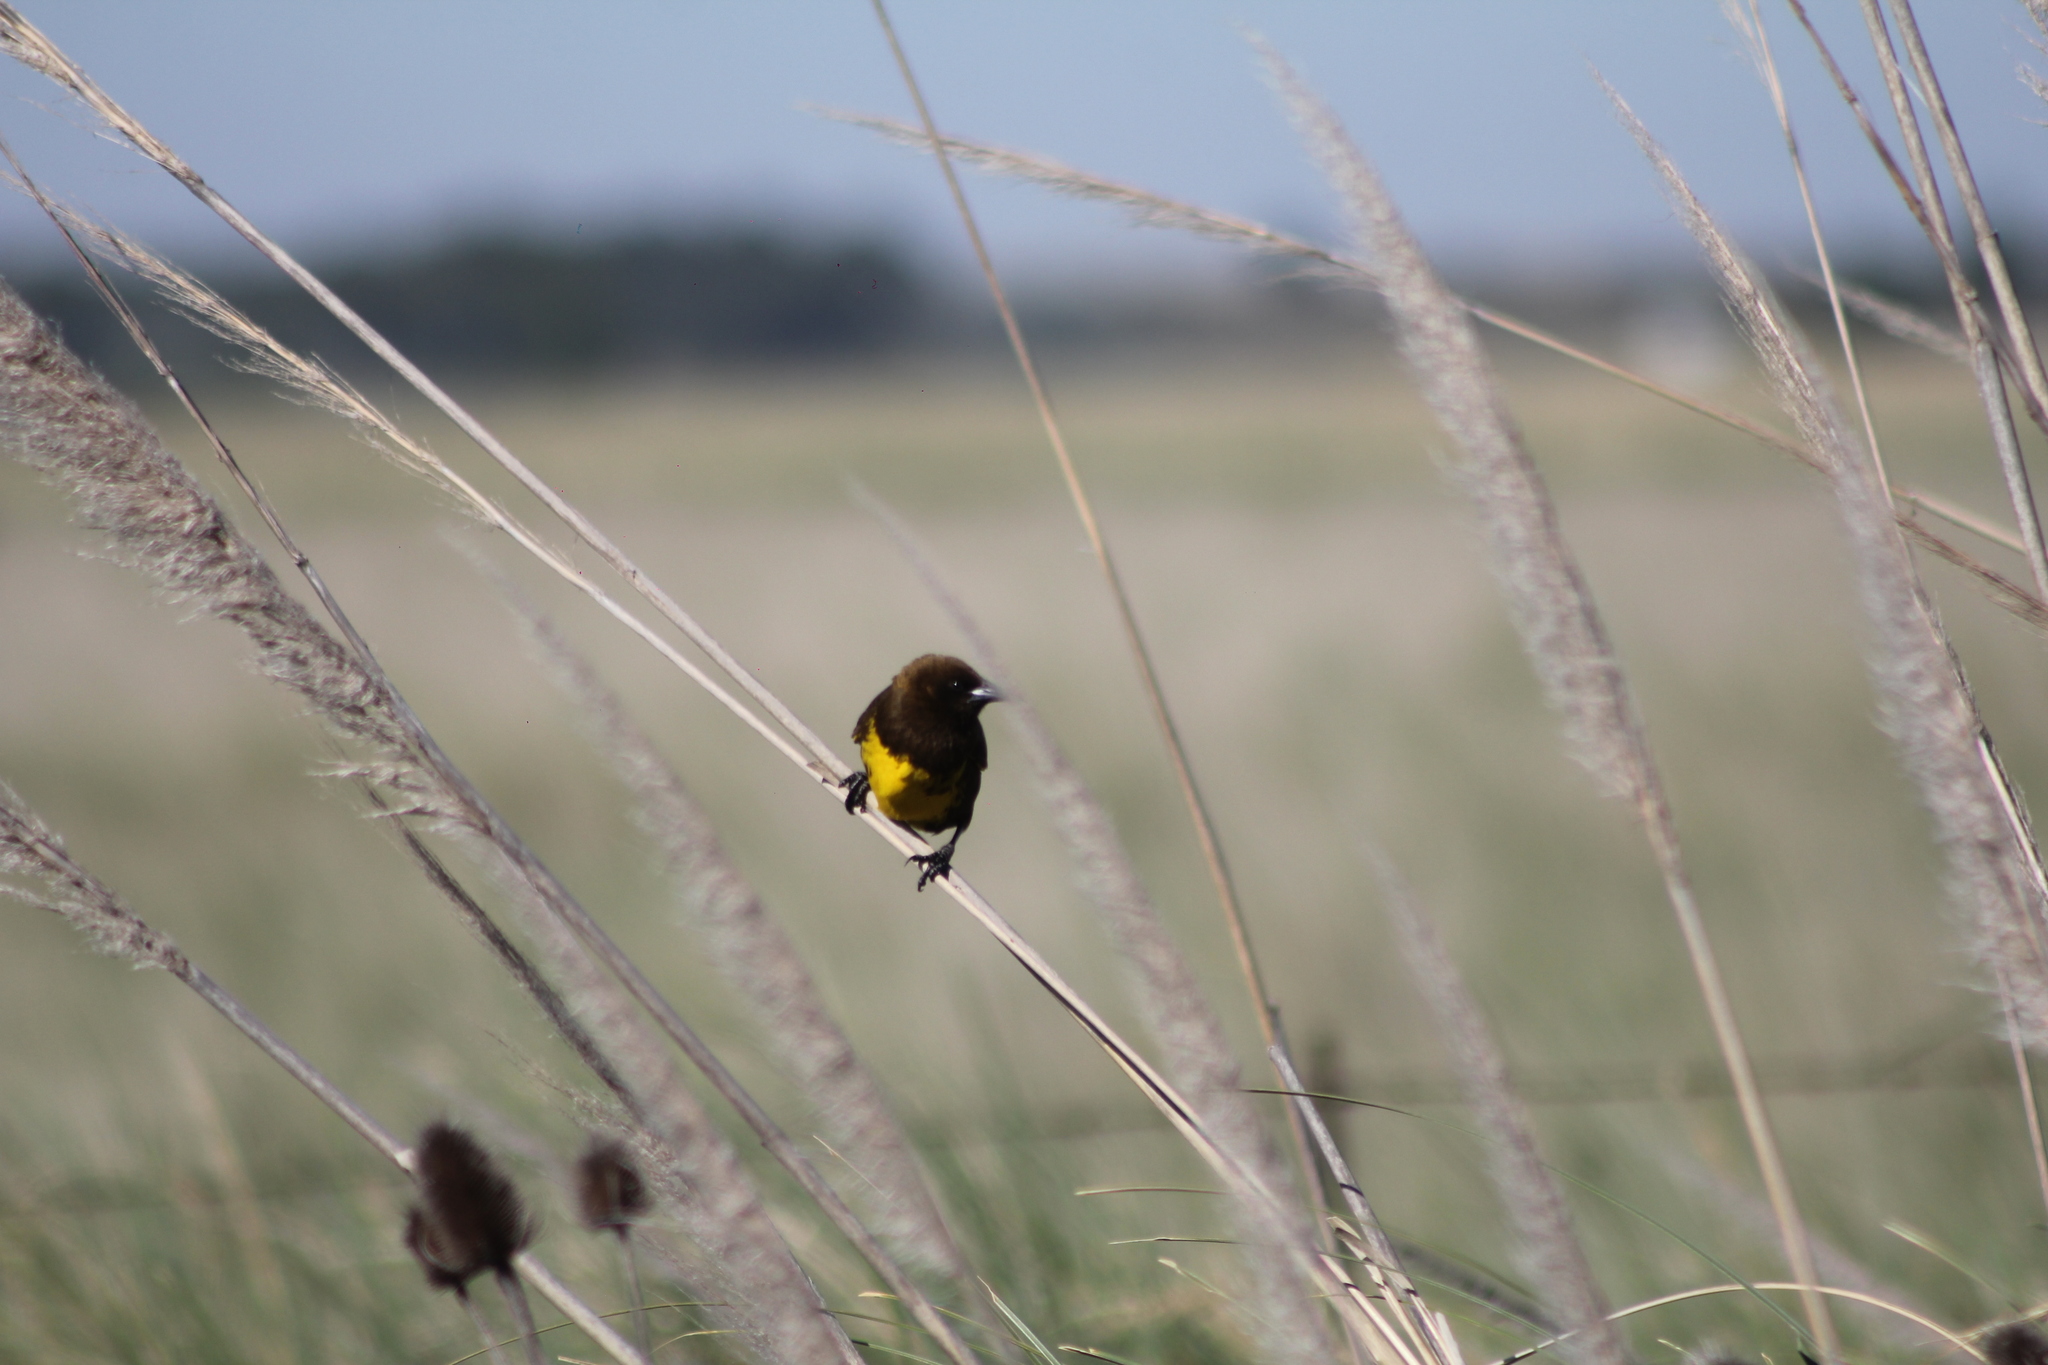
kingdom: Animalia
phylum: Chordata
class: Aves
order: Passeriformes
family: Icteridae
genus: Pseudoleistes
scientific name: Pseudoleistes virescens
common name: Brown-and-yellow marshbird
